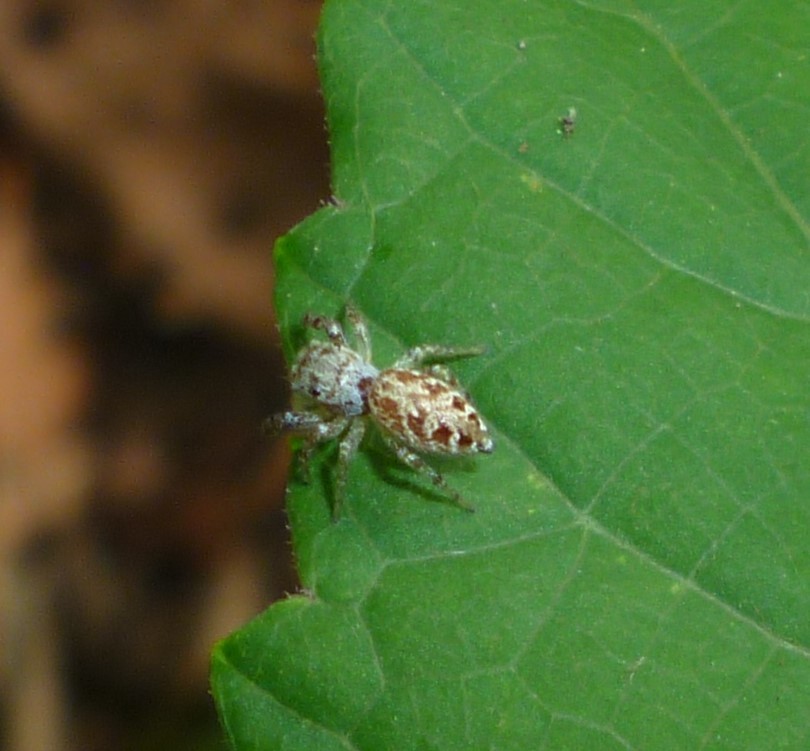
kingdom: Animalia
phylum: Arthropoda
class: Arachnida
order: Araneae
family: Salticidae
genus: Pelegrina
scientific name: Pelegrina proterva
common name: Common white-cheeked jumping spider
